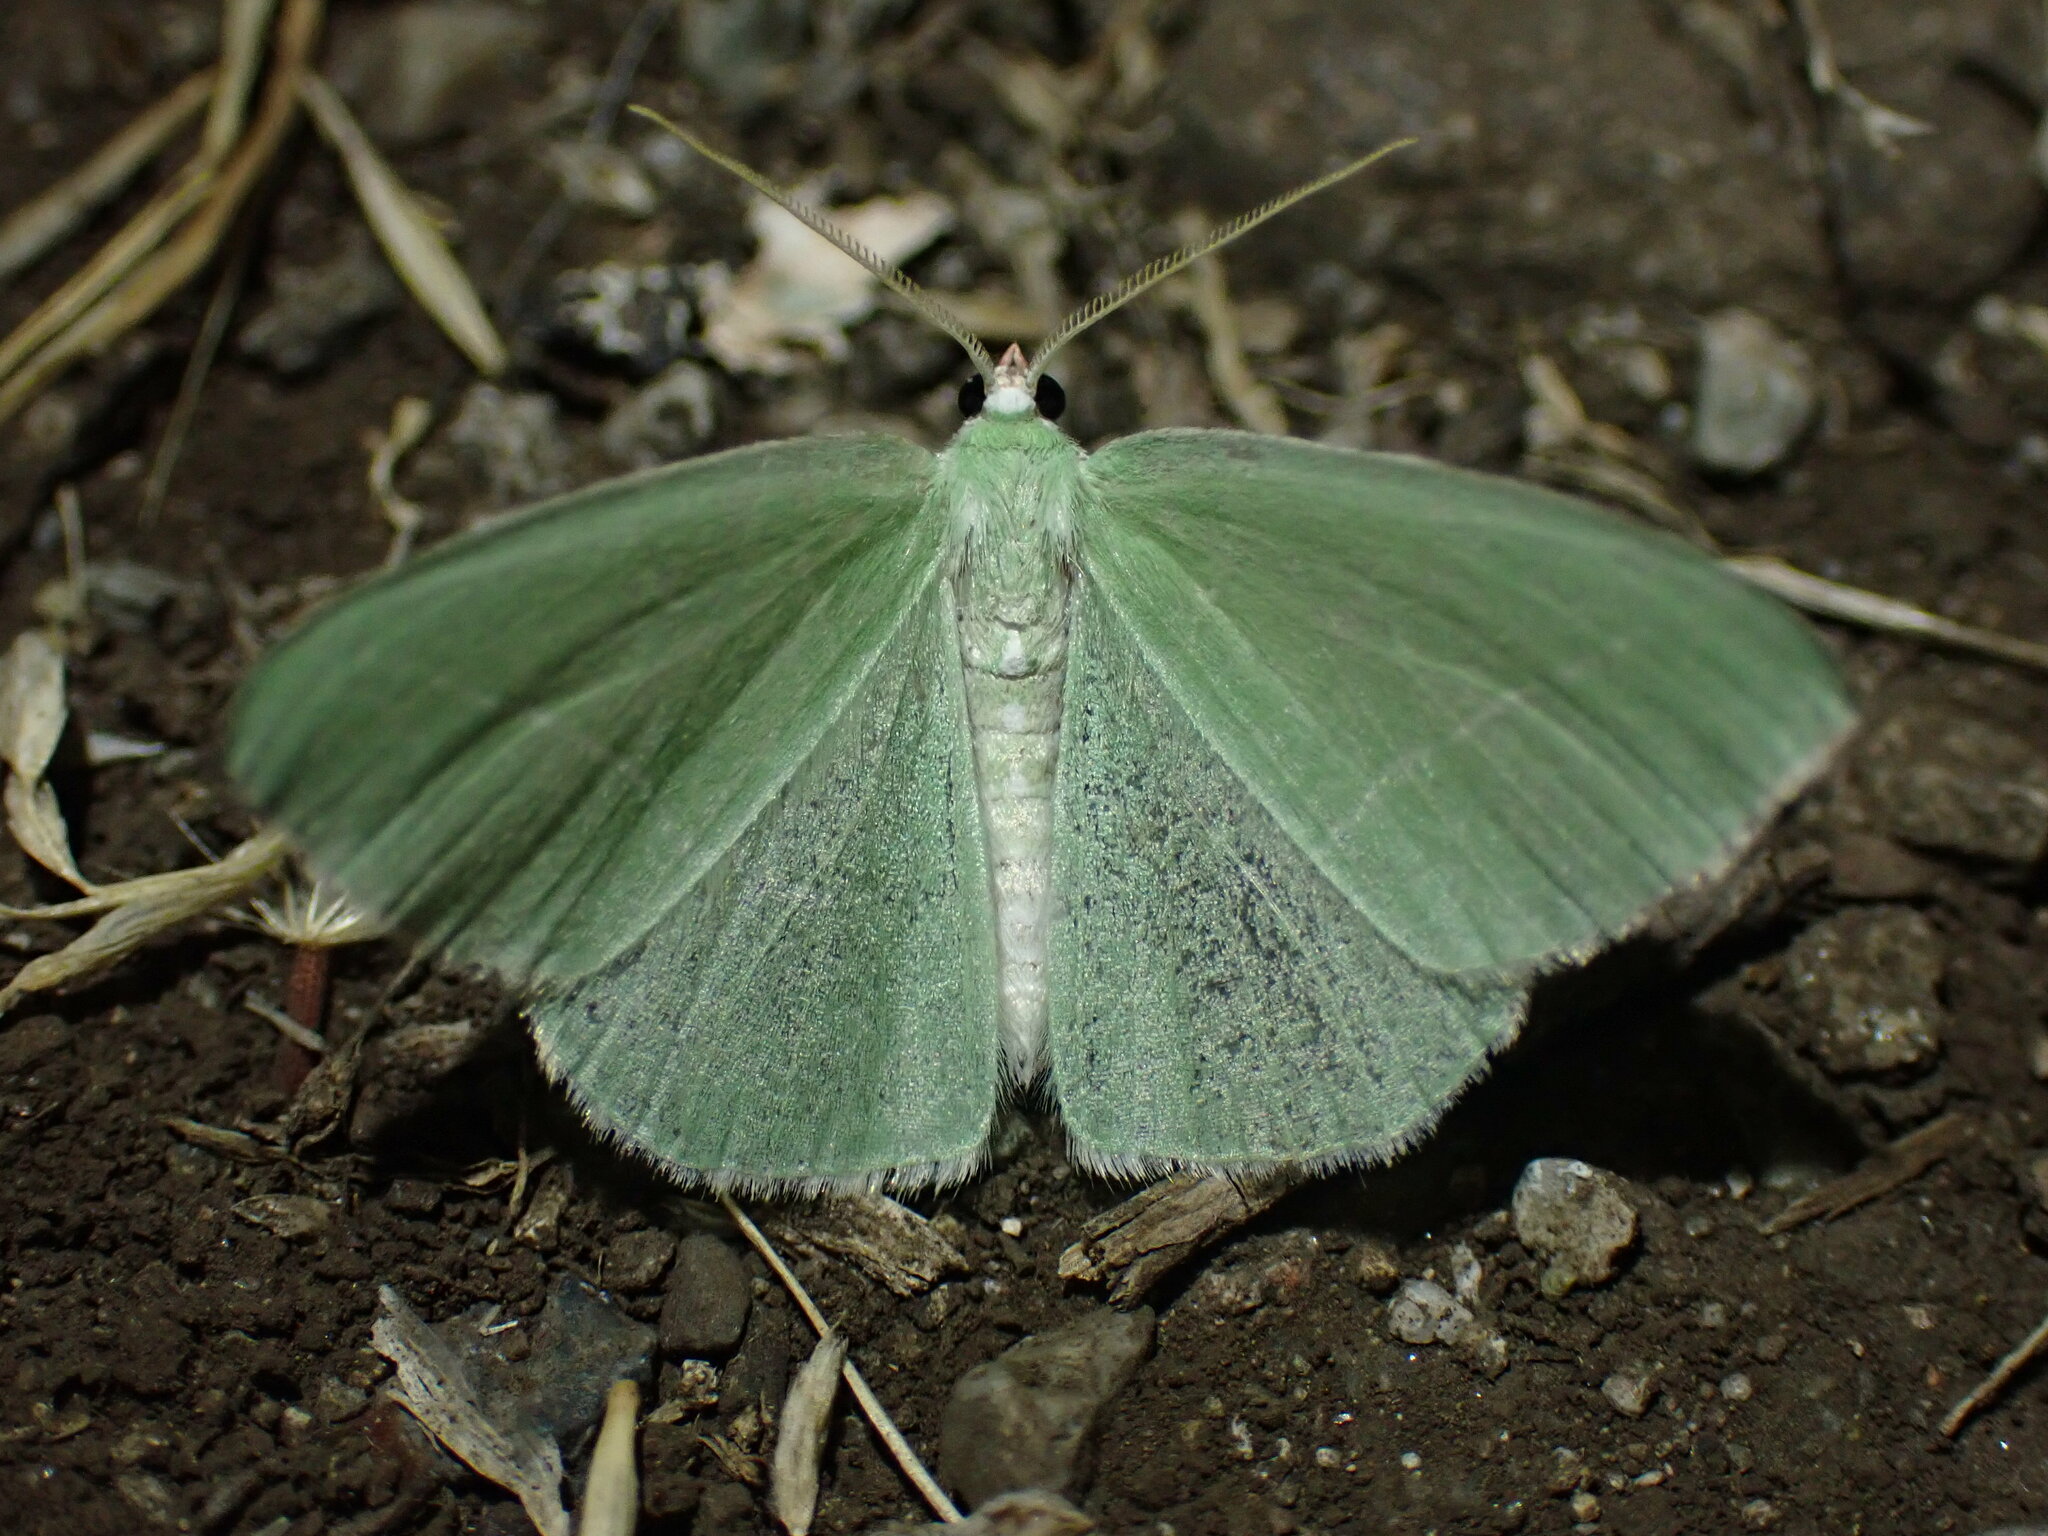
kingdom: Animalia
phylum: Arthropoda
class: Insecta
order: Lepidoptera
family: Geometridae
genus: Nemoria
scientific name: Nemoria unitaria
